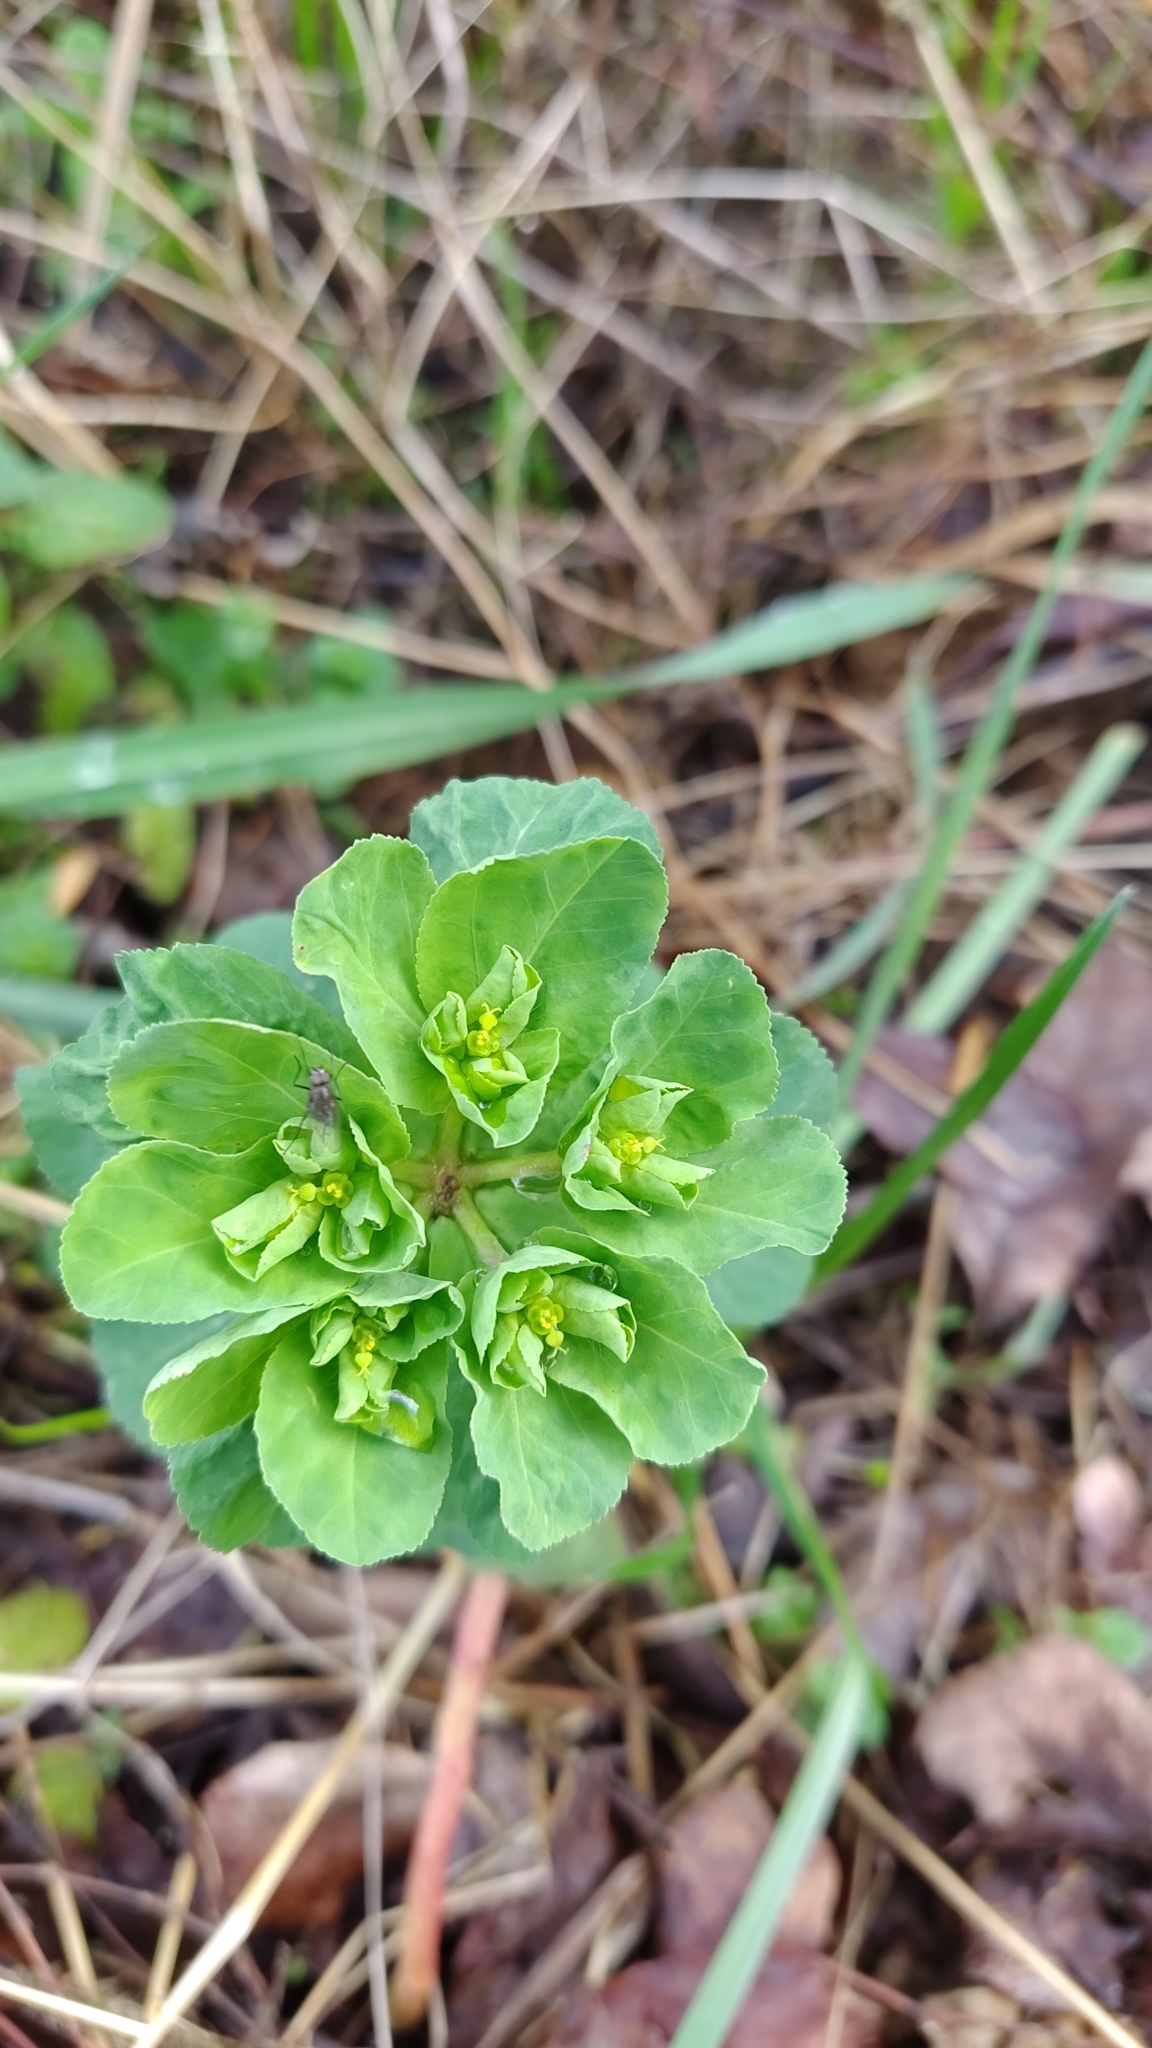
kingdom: Plantae
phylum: Tracheophyta
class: Magnoliopsida
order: Malpighiales
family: Euphorbiaceae
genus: Euphorbia
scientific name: Euphorbia helioscopia
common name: Sun spurge
